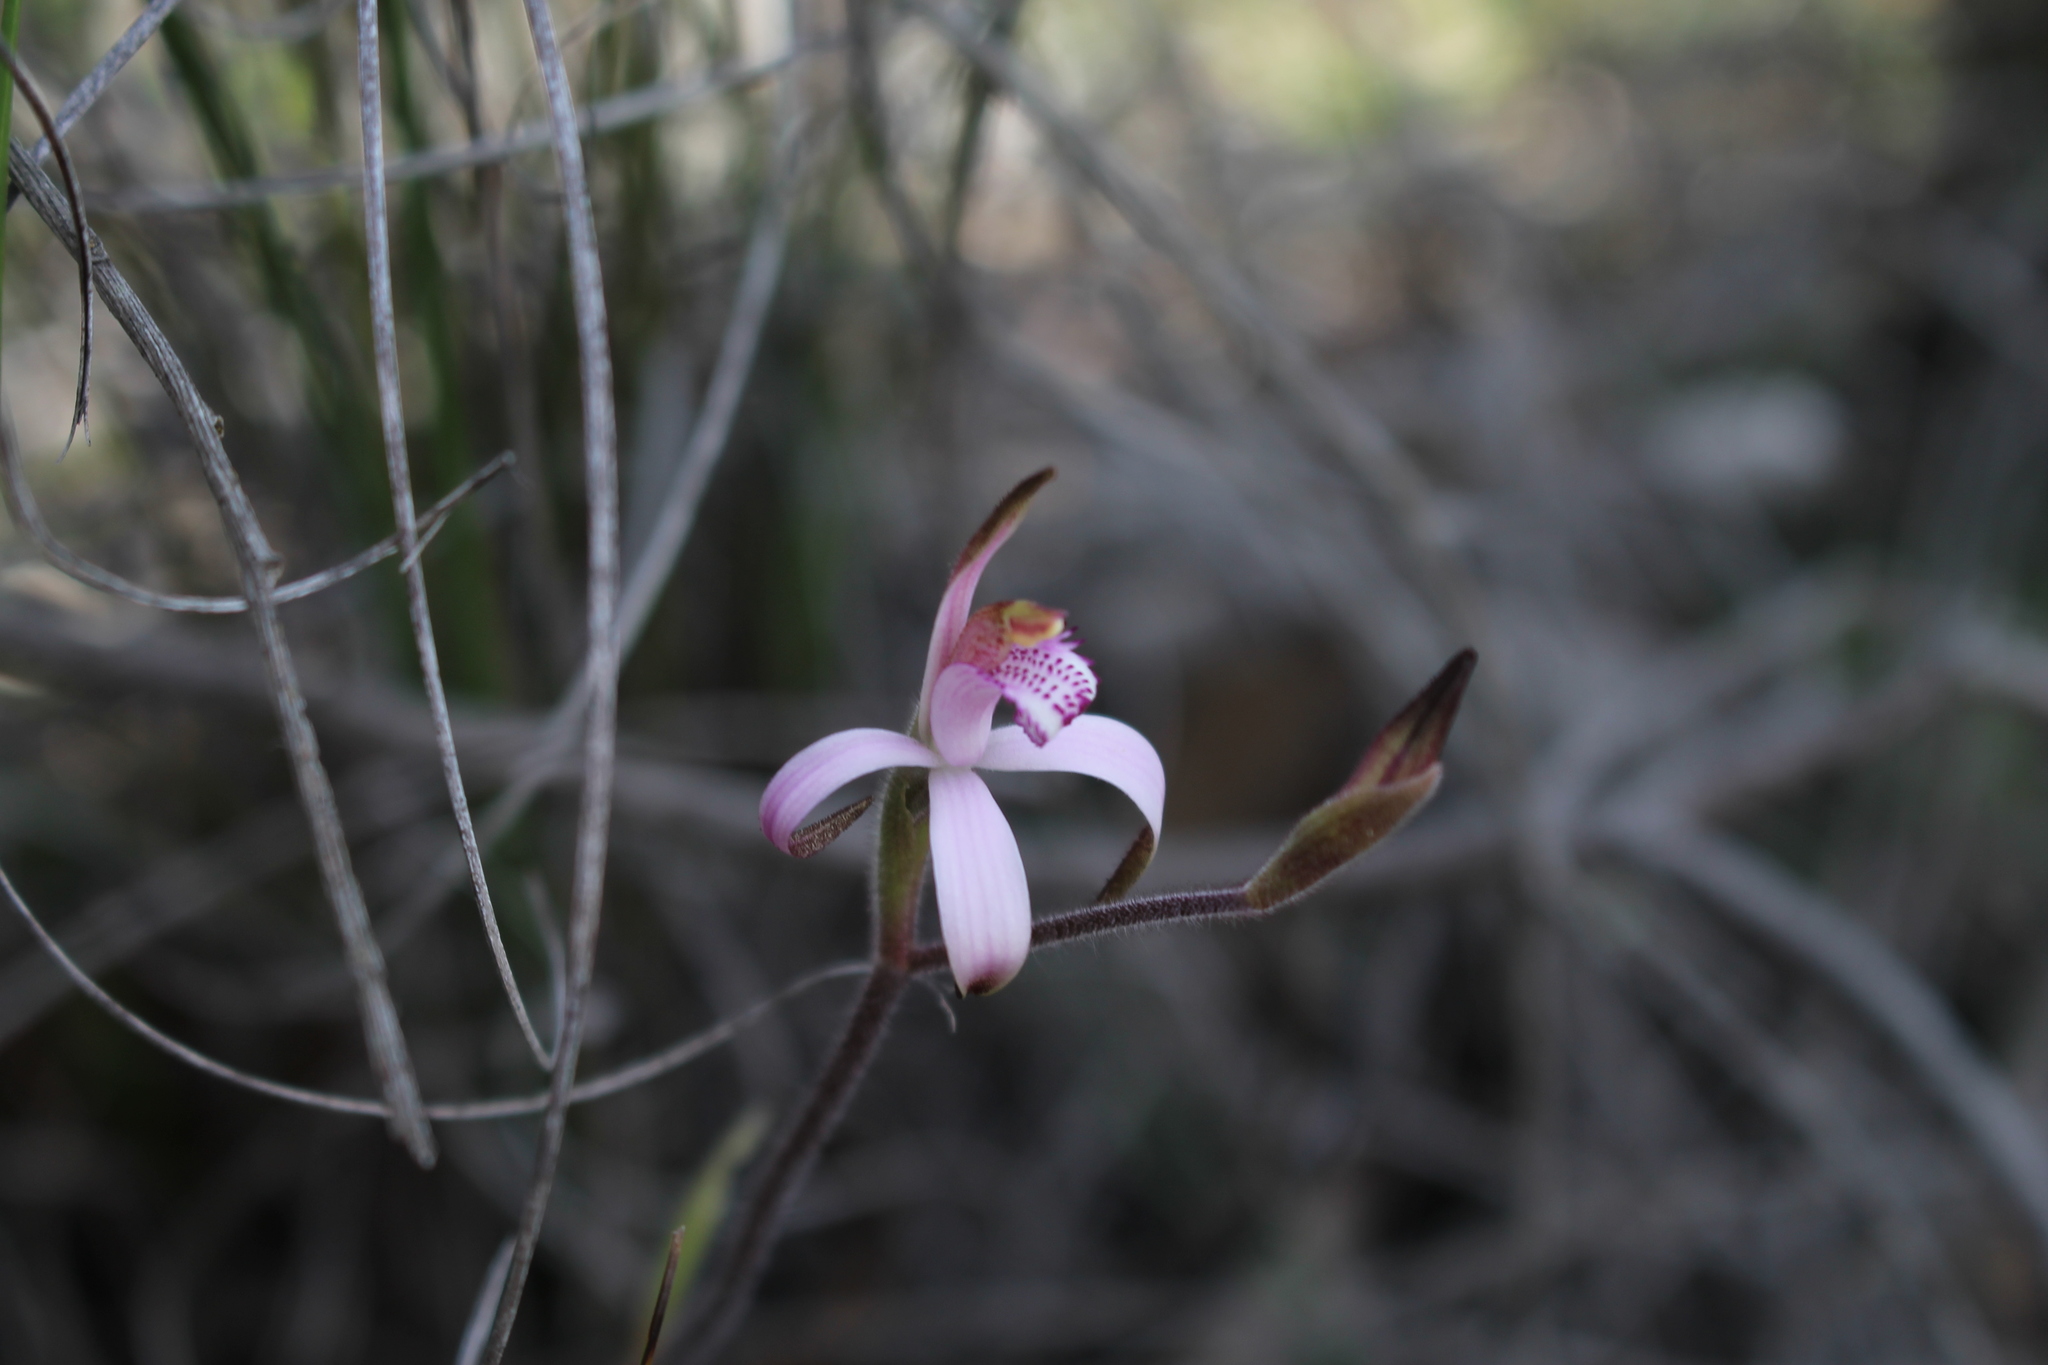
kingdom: Plantae
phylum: Tracheophyta
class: Liliopsida
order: Asparagales
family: Orchidaceae
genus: Caladenia
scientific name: Caladenia hirta
